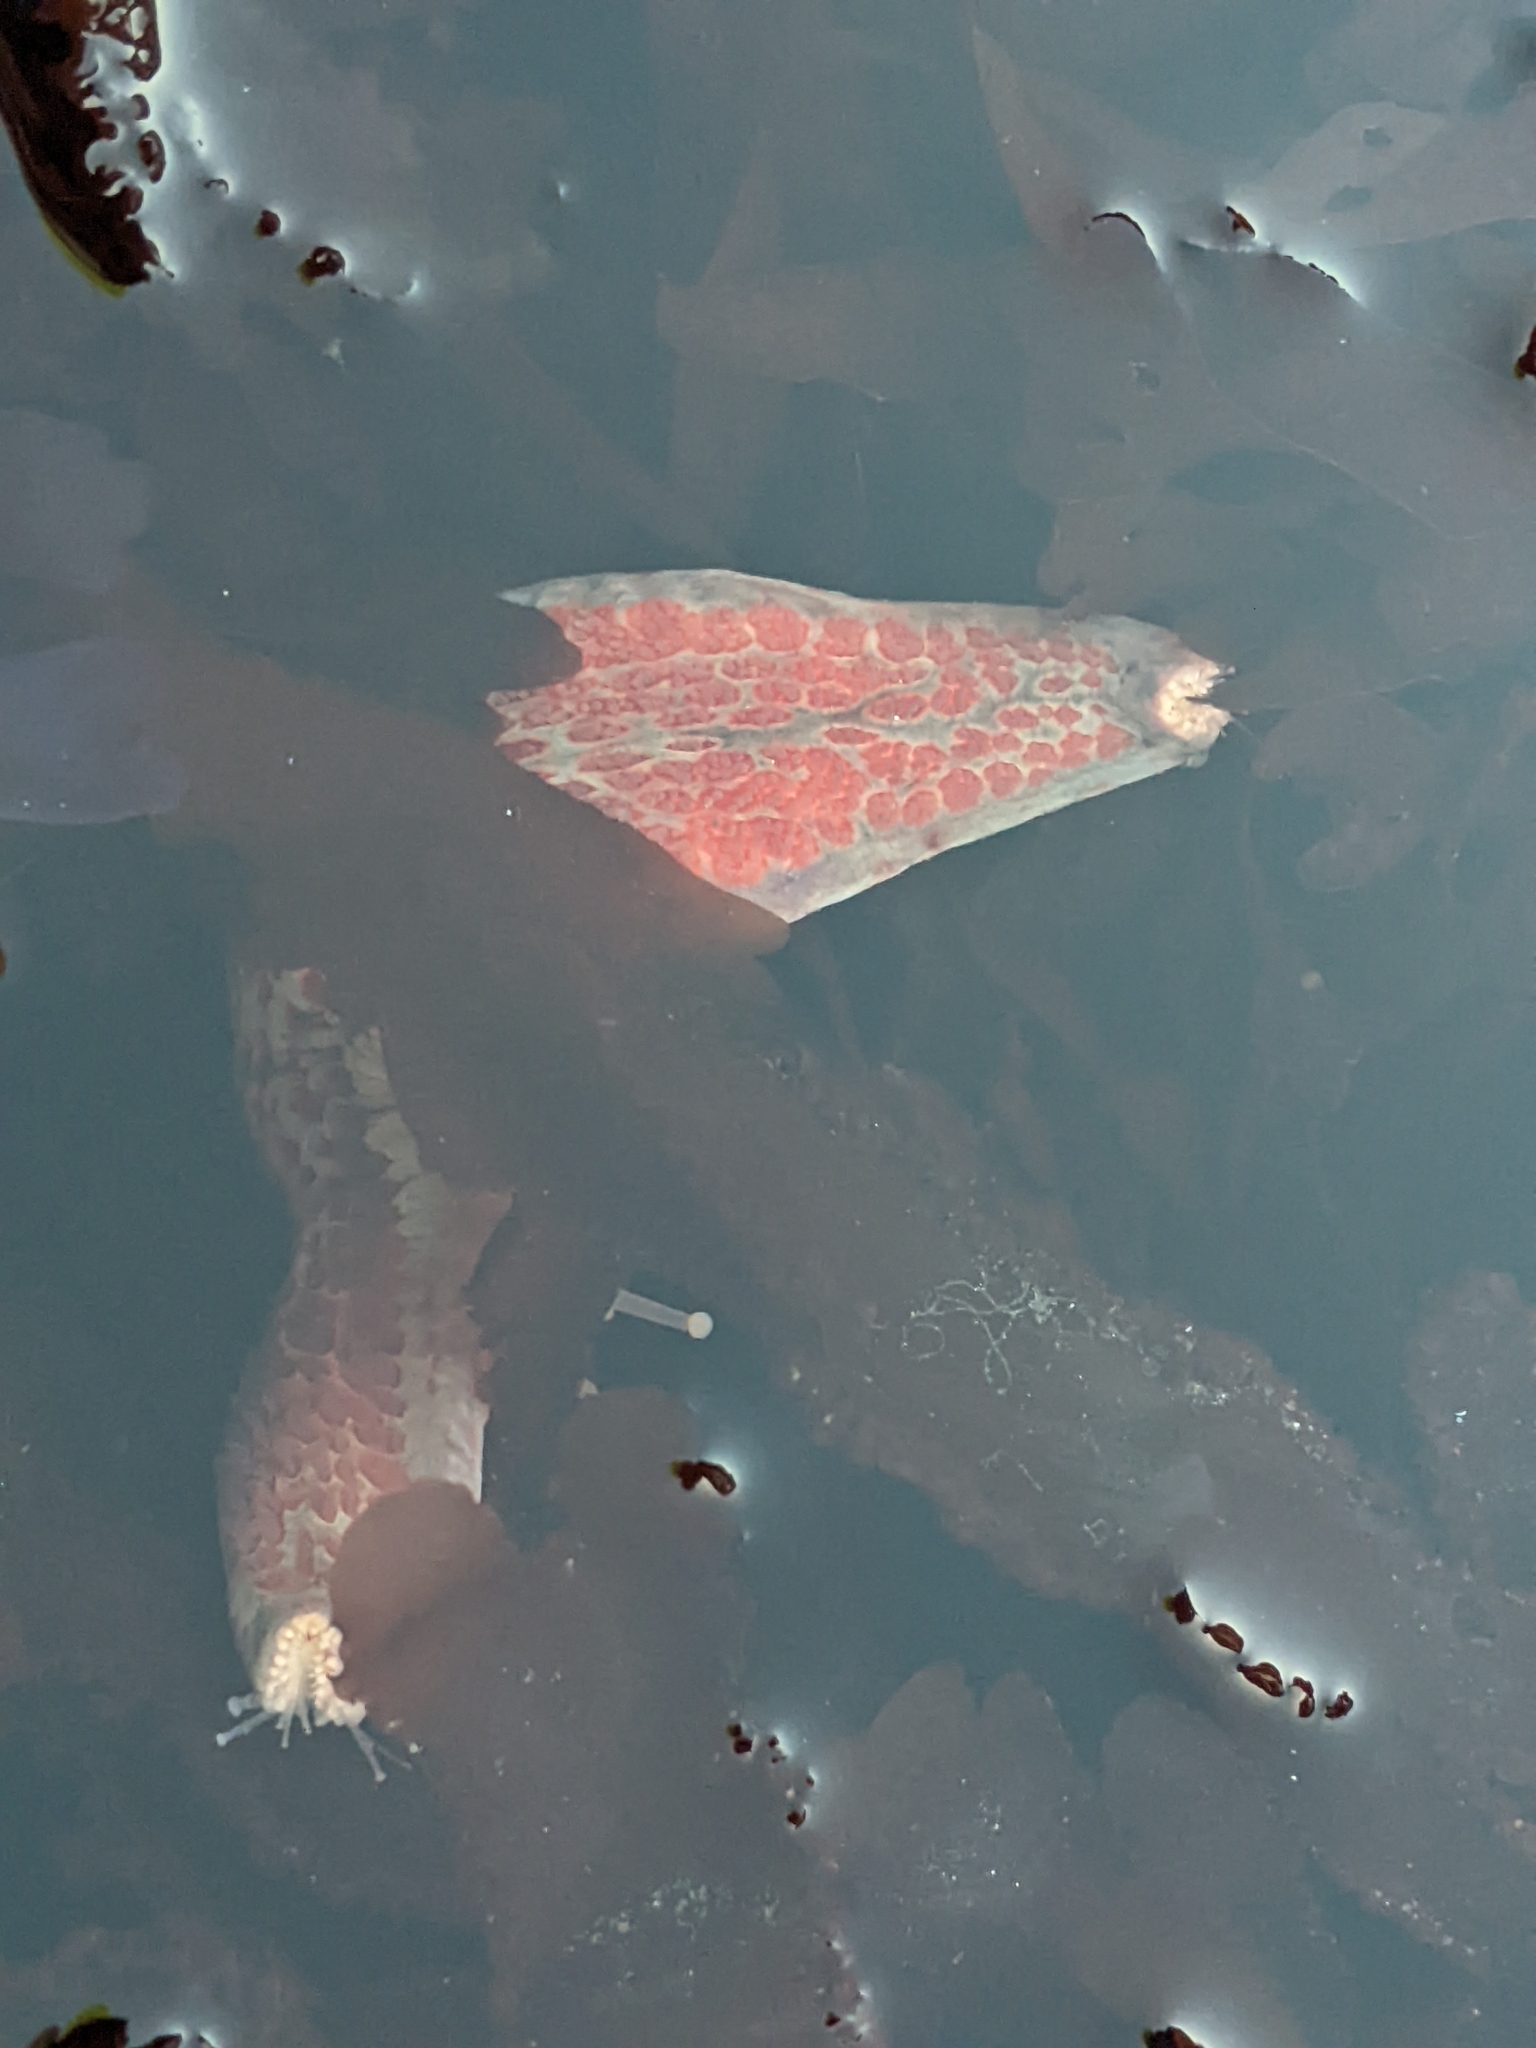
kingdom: Animalia
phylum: Echinodermata
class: Asteroidea
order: Valvatida
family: Asteropseidae
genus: Dermasterias
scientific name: Dermasterias imbricata
